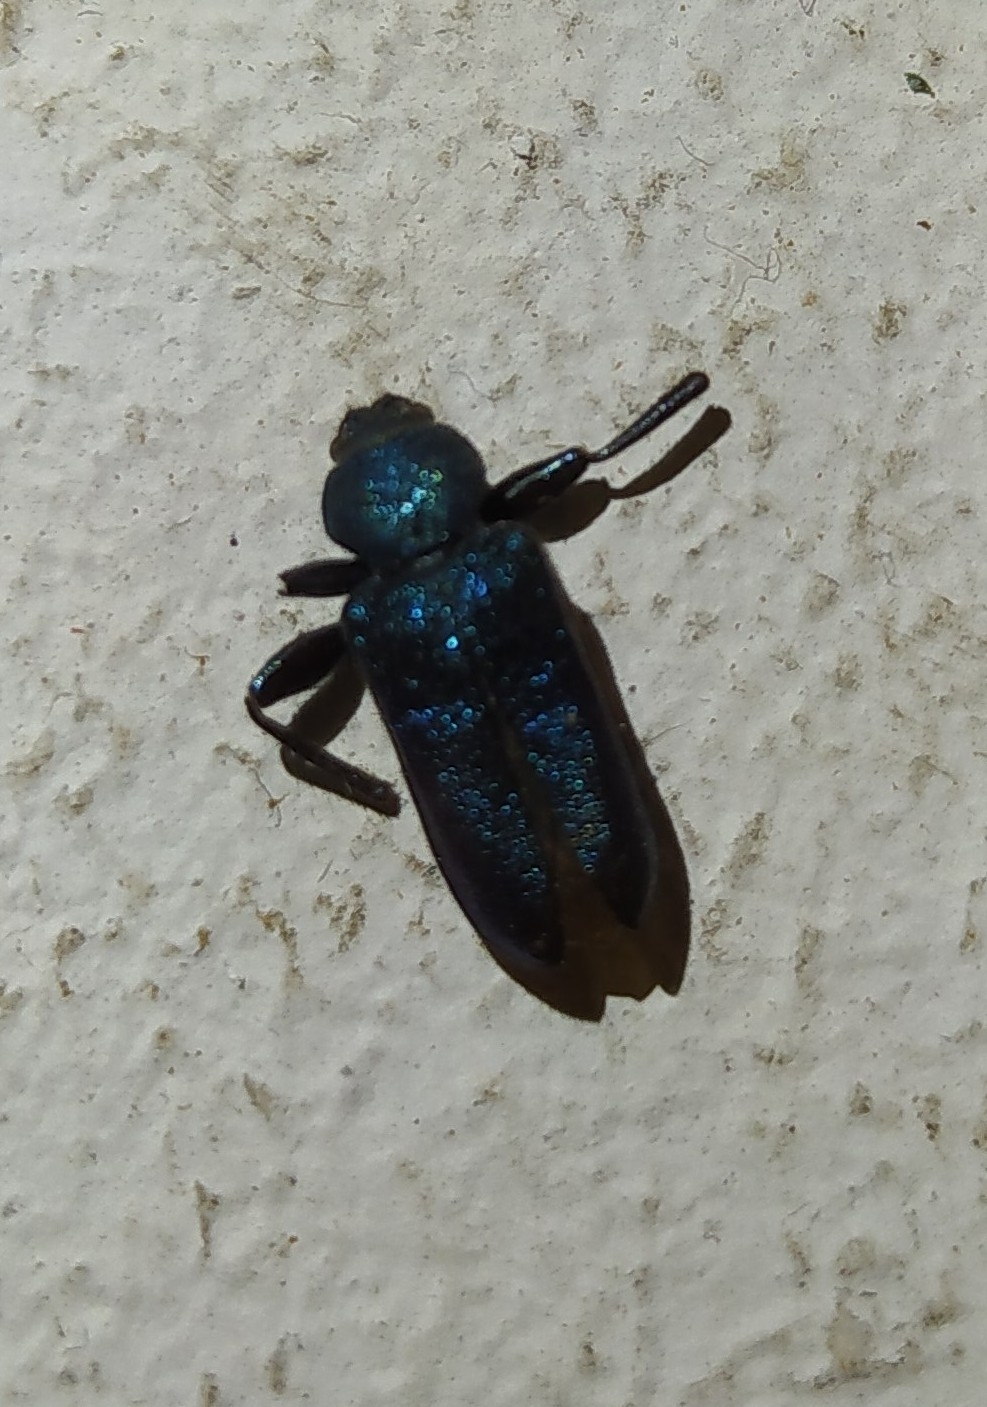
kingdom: Animalia
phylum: Arthropoda
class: Insecta
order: Coleoptera
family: Cerambycidae
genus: Callidium
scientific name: Callidium violaceum
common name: Violet tanbark beetle
